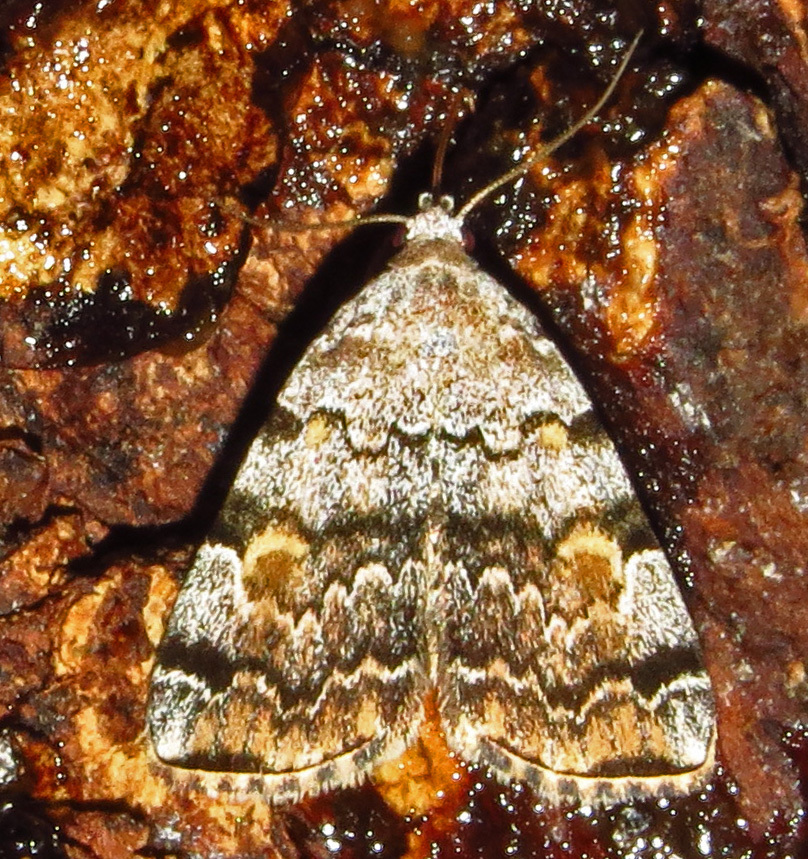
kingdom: Animalia
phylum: Arthropoda
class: Insecta
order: Lepidoptera
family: Erebidae
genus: Idia
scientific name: Idia americalis
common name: American idia moth
